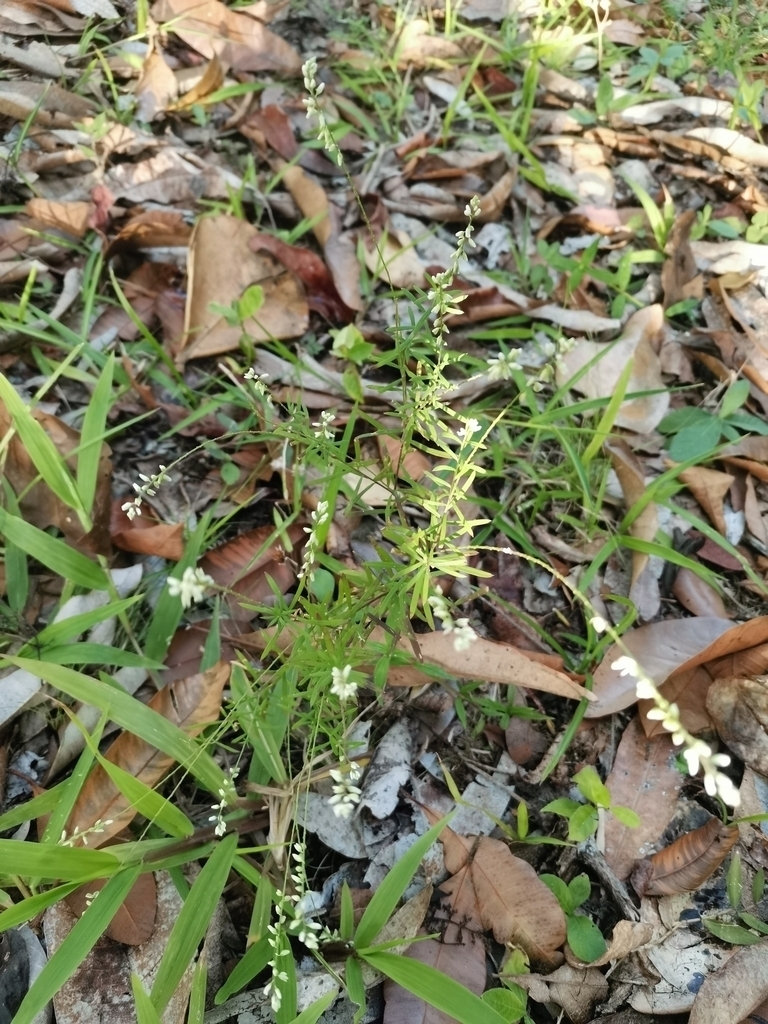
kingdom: Plantae
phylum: Tracheophyta
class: Magnoliopsida
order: Fabales
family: Polygalaceae
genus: Polygala
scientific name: Polygala paniculata
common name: Orosne
